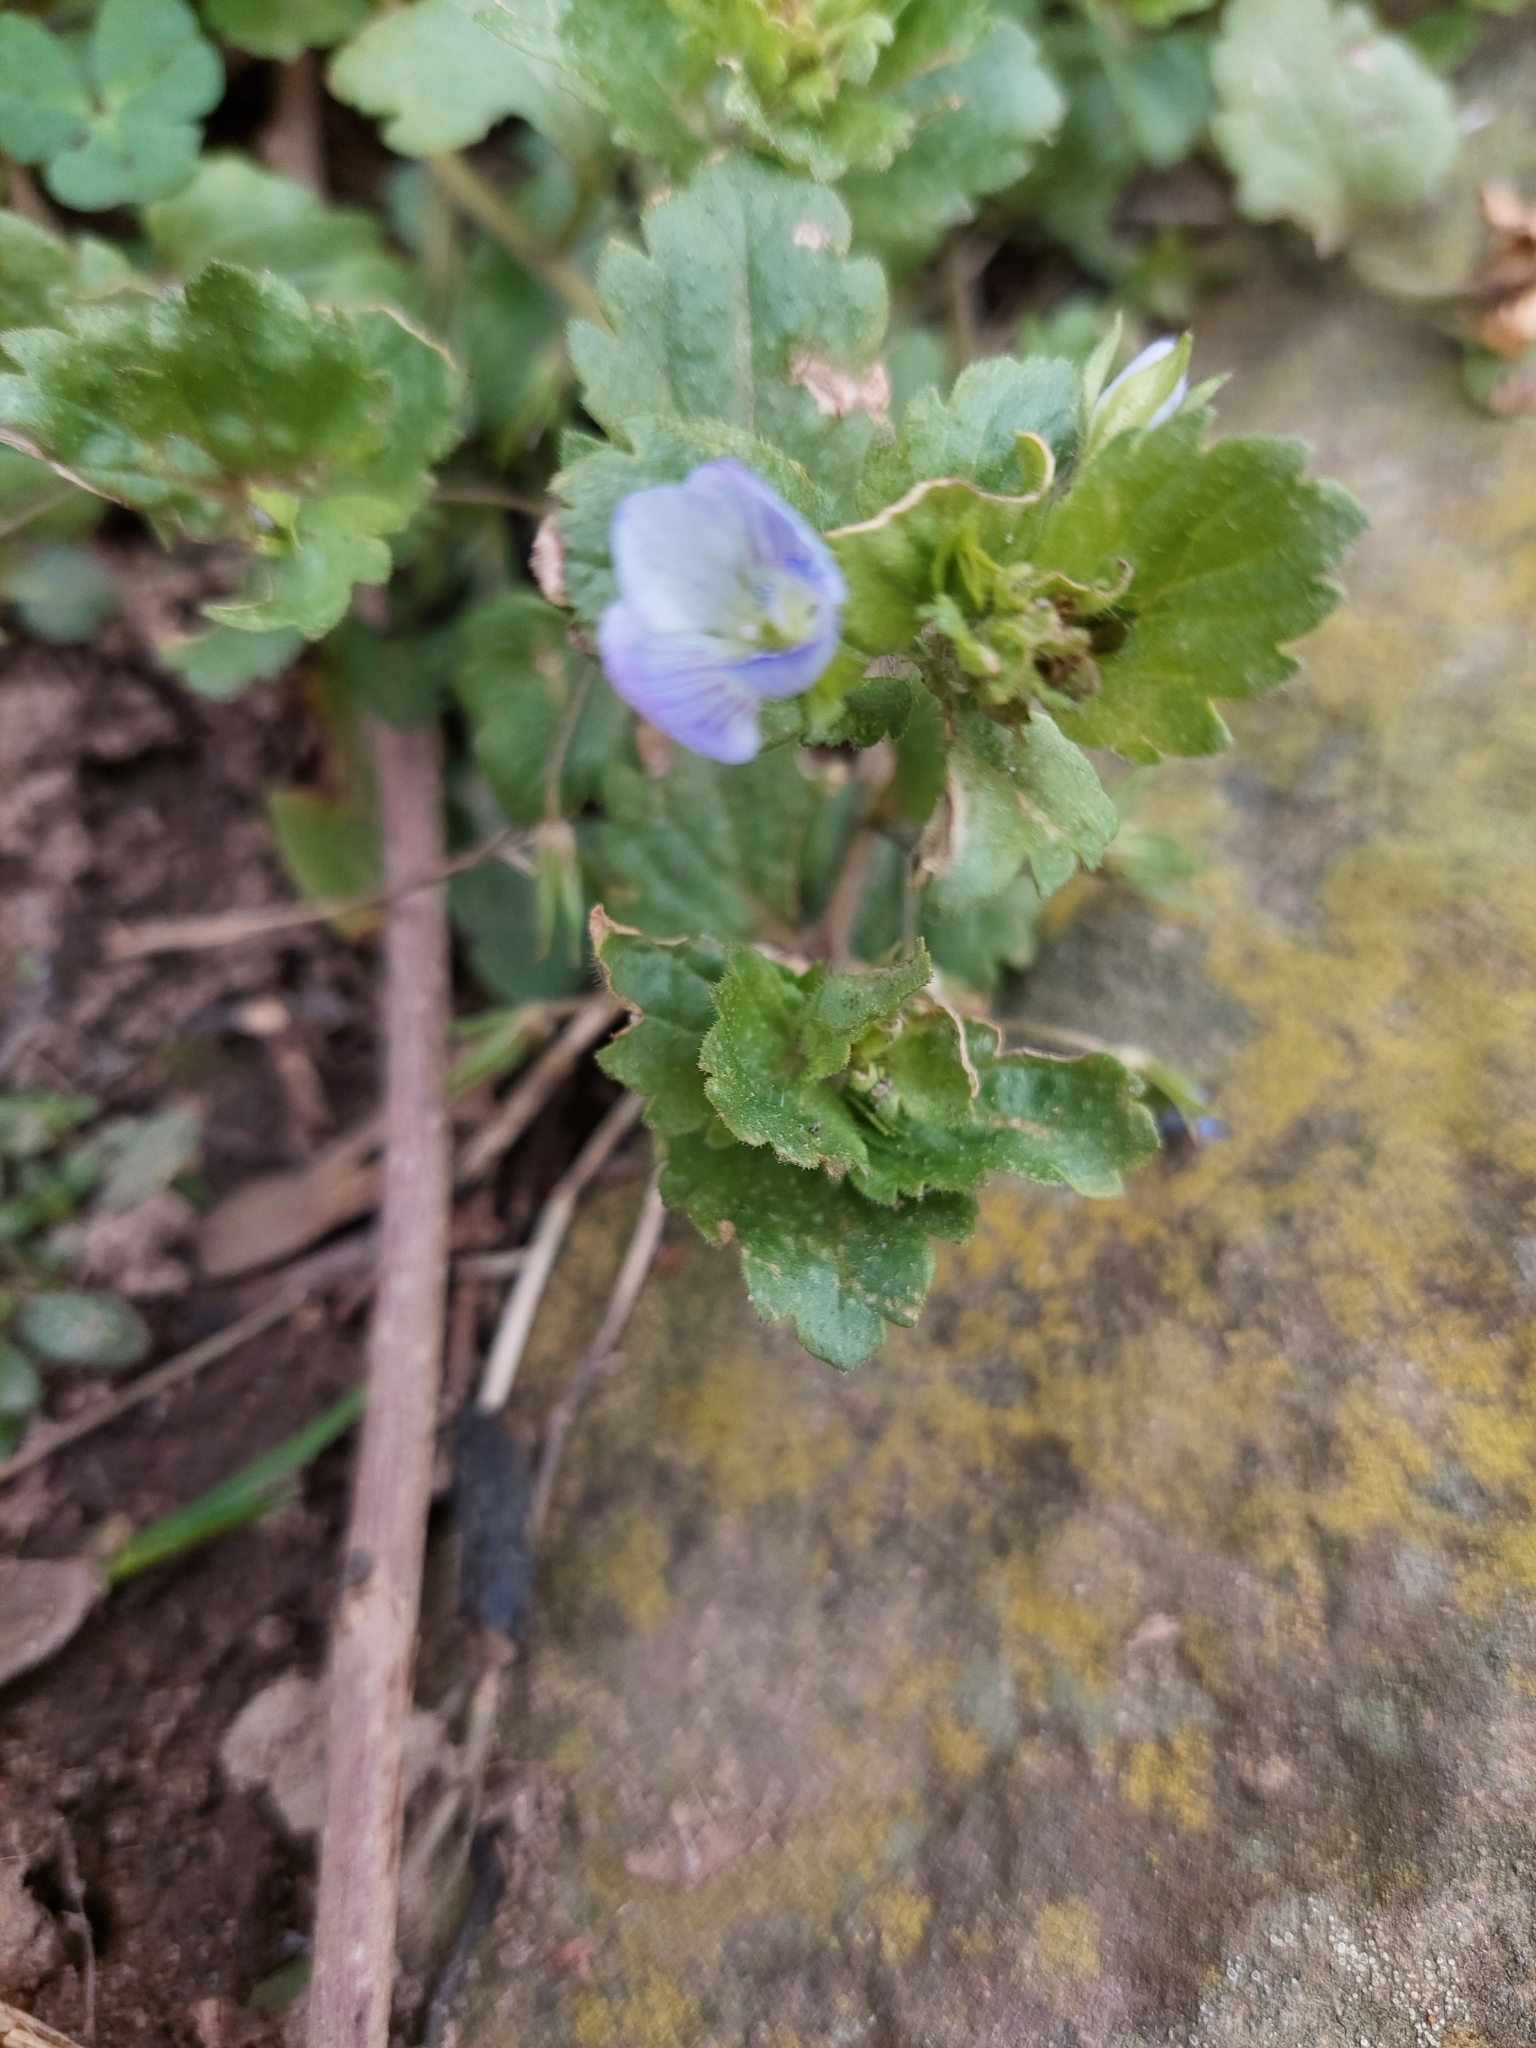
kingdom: Plantae
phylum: Tracheophyta
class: Magnoliopsida
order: Lamiales
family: Plantaginaceae
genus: Veronica
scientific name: Veronica persica
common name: Common field-speedwell
